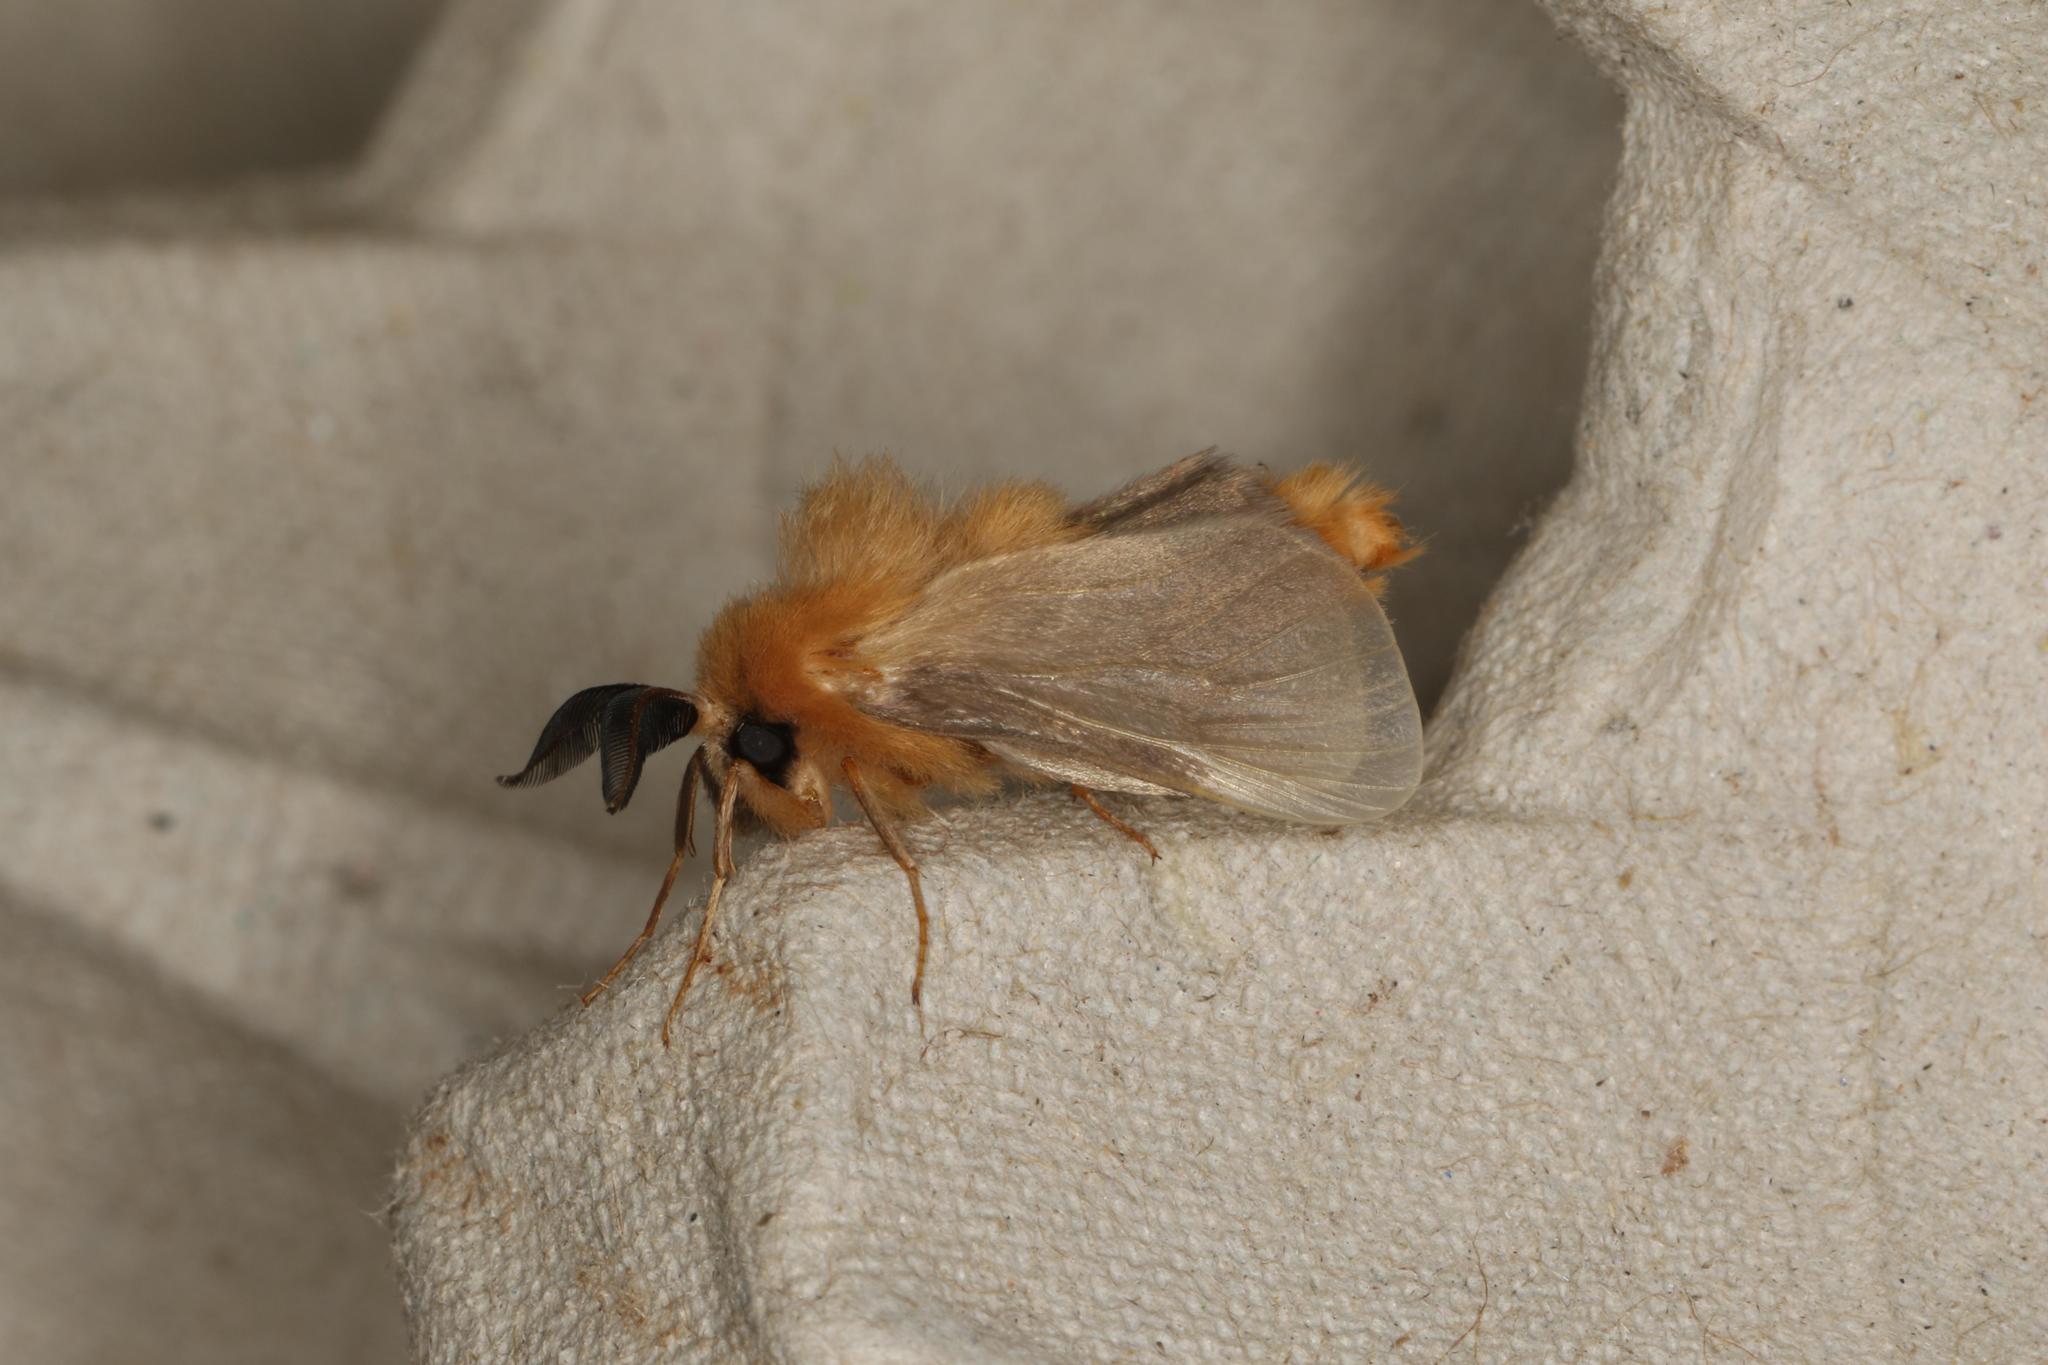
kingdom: Animalia
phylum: Arthropoda
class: Insecta
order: Lepidoptera
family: Psychidae
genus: Lomera
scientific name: Lomera boisduvali
